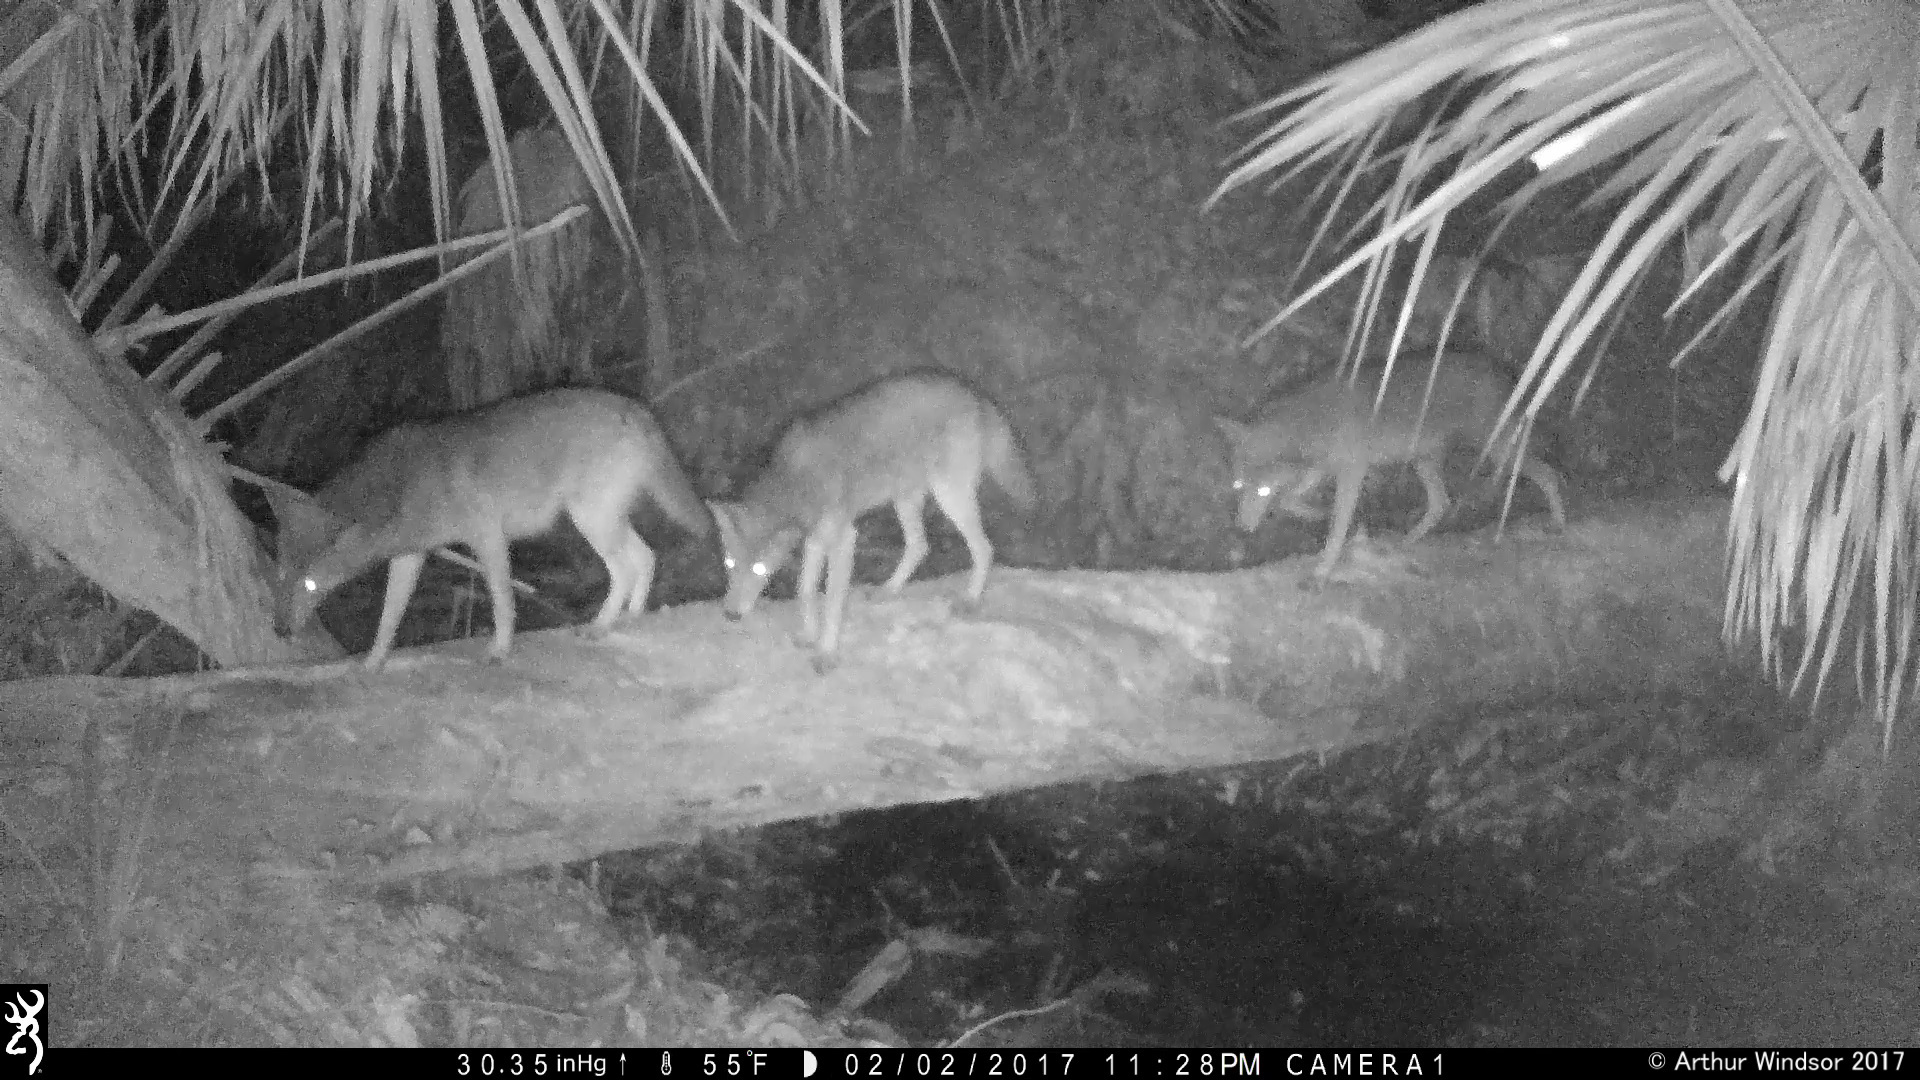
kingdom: Animalia
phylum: Chordata
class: Mammalia
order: Carnivora
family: Canidae
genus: Canis
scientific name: Canis latrans
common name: Coyote
